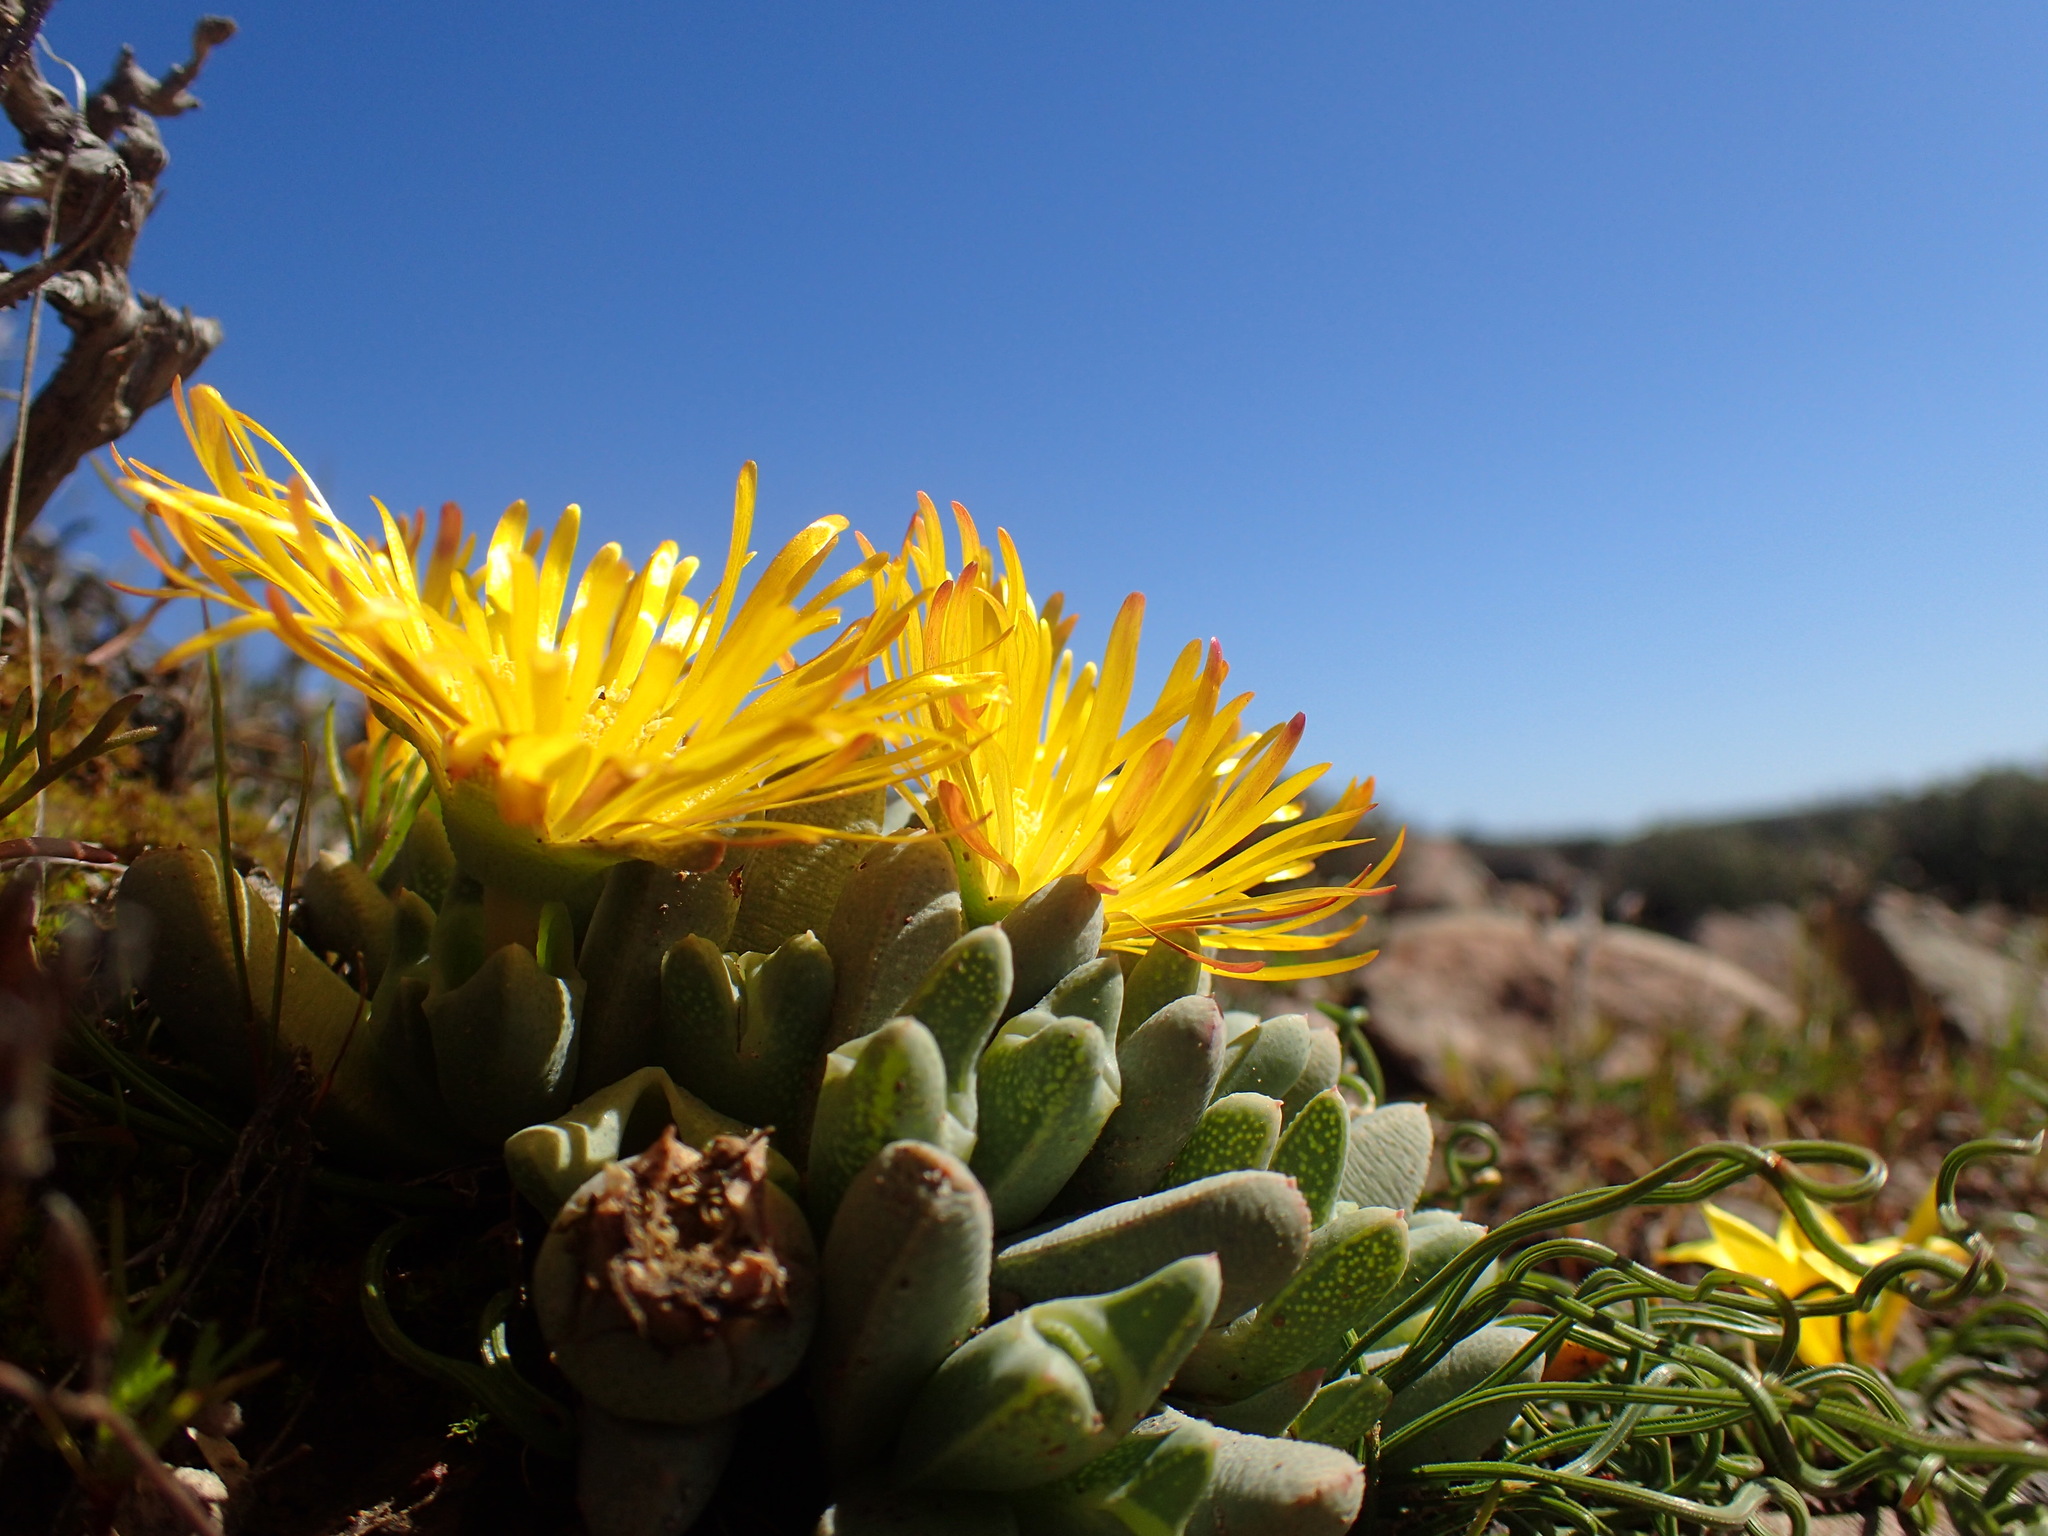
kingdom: Plantae
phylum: Tracheophyta
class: Magnoliopsida
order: Caryophyllales
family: Aizoaceae
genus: Cheiridopsis
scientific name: Cheiridopsis namaquensis
